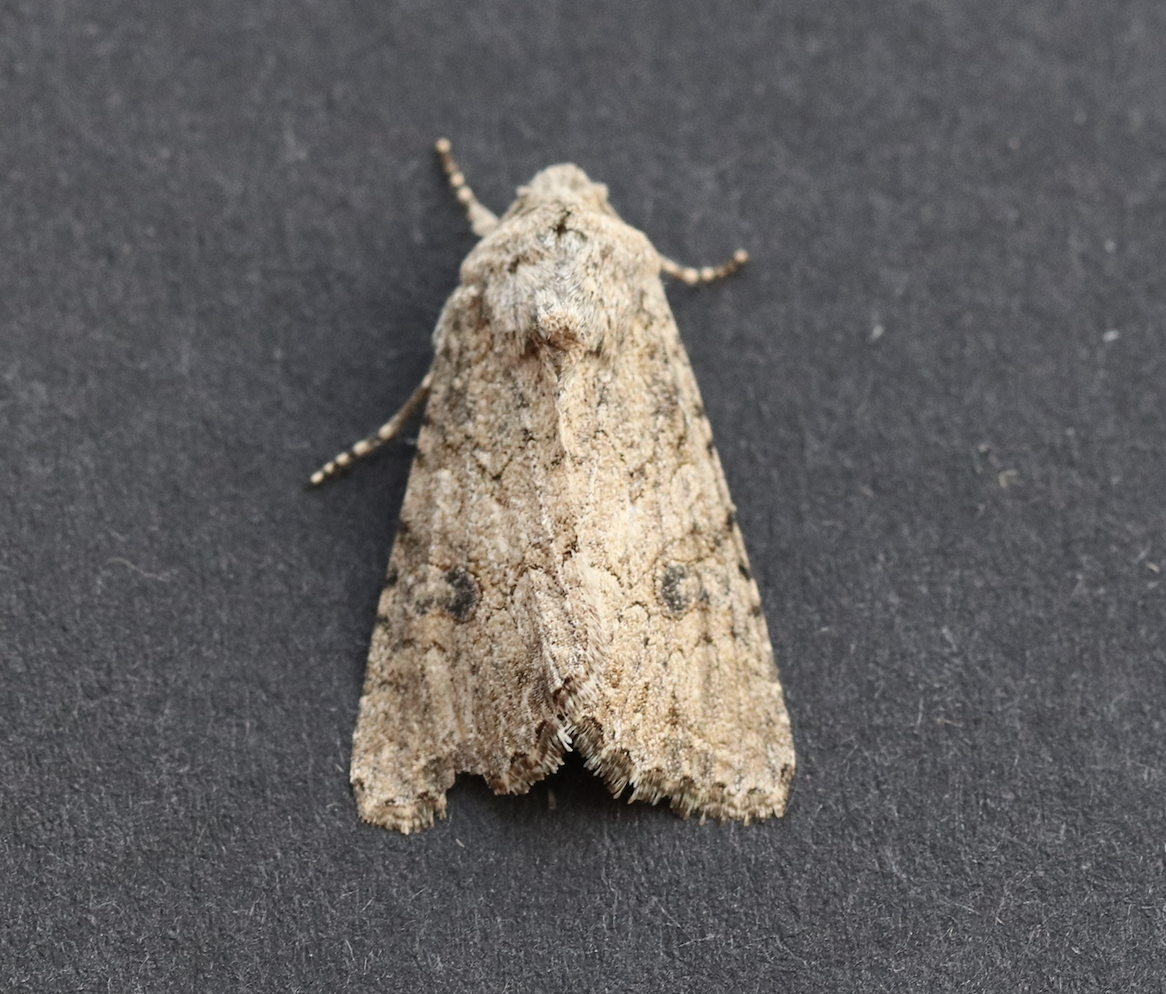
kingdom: Animalia
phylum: Arthropoda
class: Insecta
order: Lepidoptera
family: Noctuidae
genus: Anarta
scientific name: Anarta trifolii
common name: Clover cutworm moth
